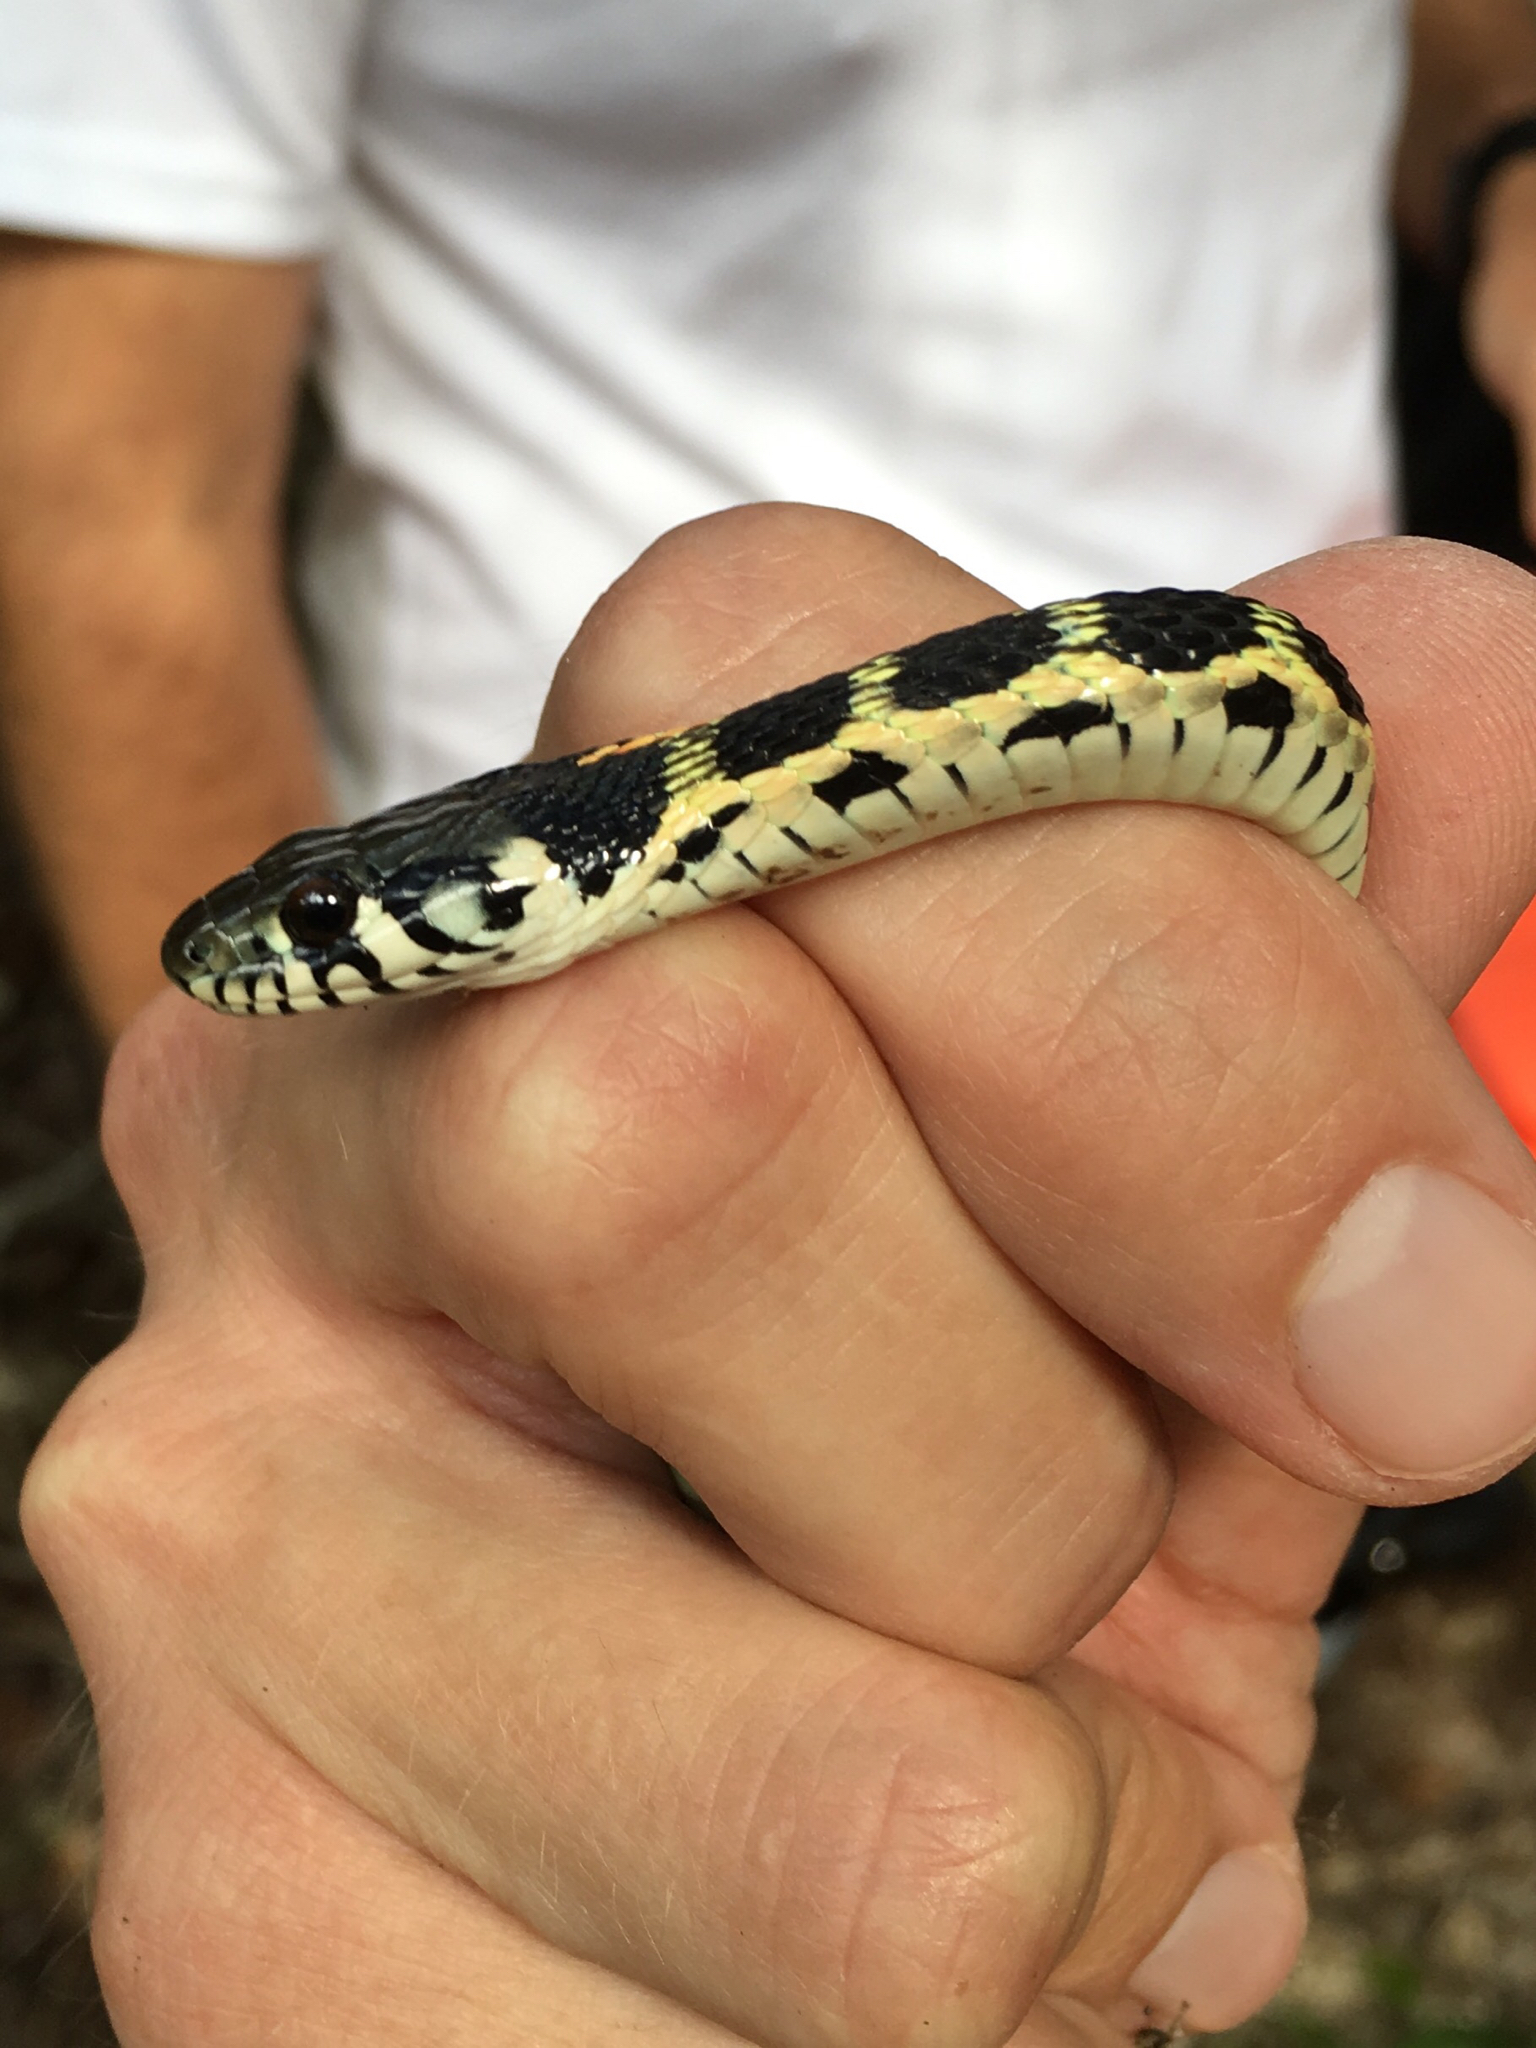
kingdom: Animalia
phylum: Chordata
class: Squamata
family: Colubridae
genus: Thamnophis
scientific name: Thamnophis cyrtopsis
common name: Black-necked gartersnake
